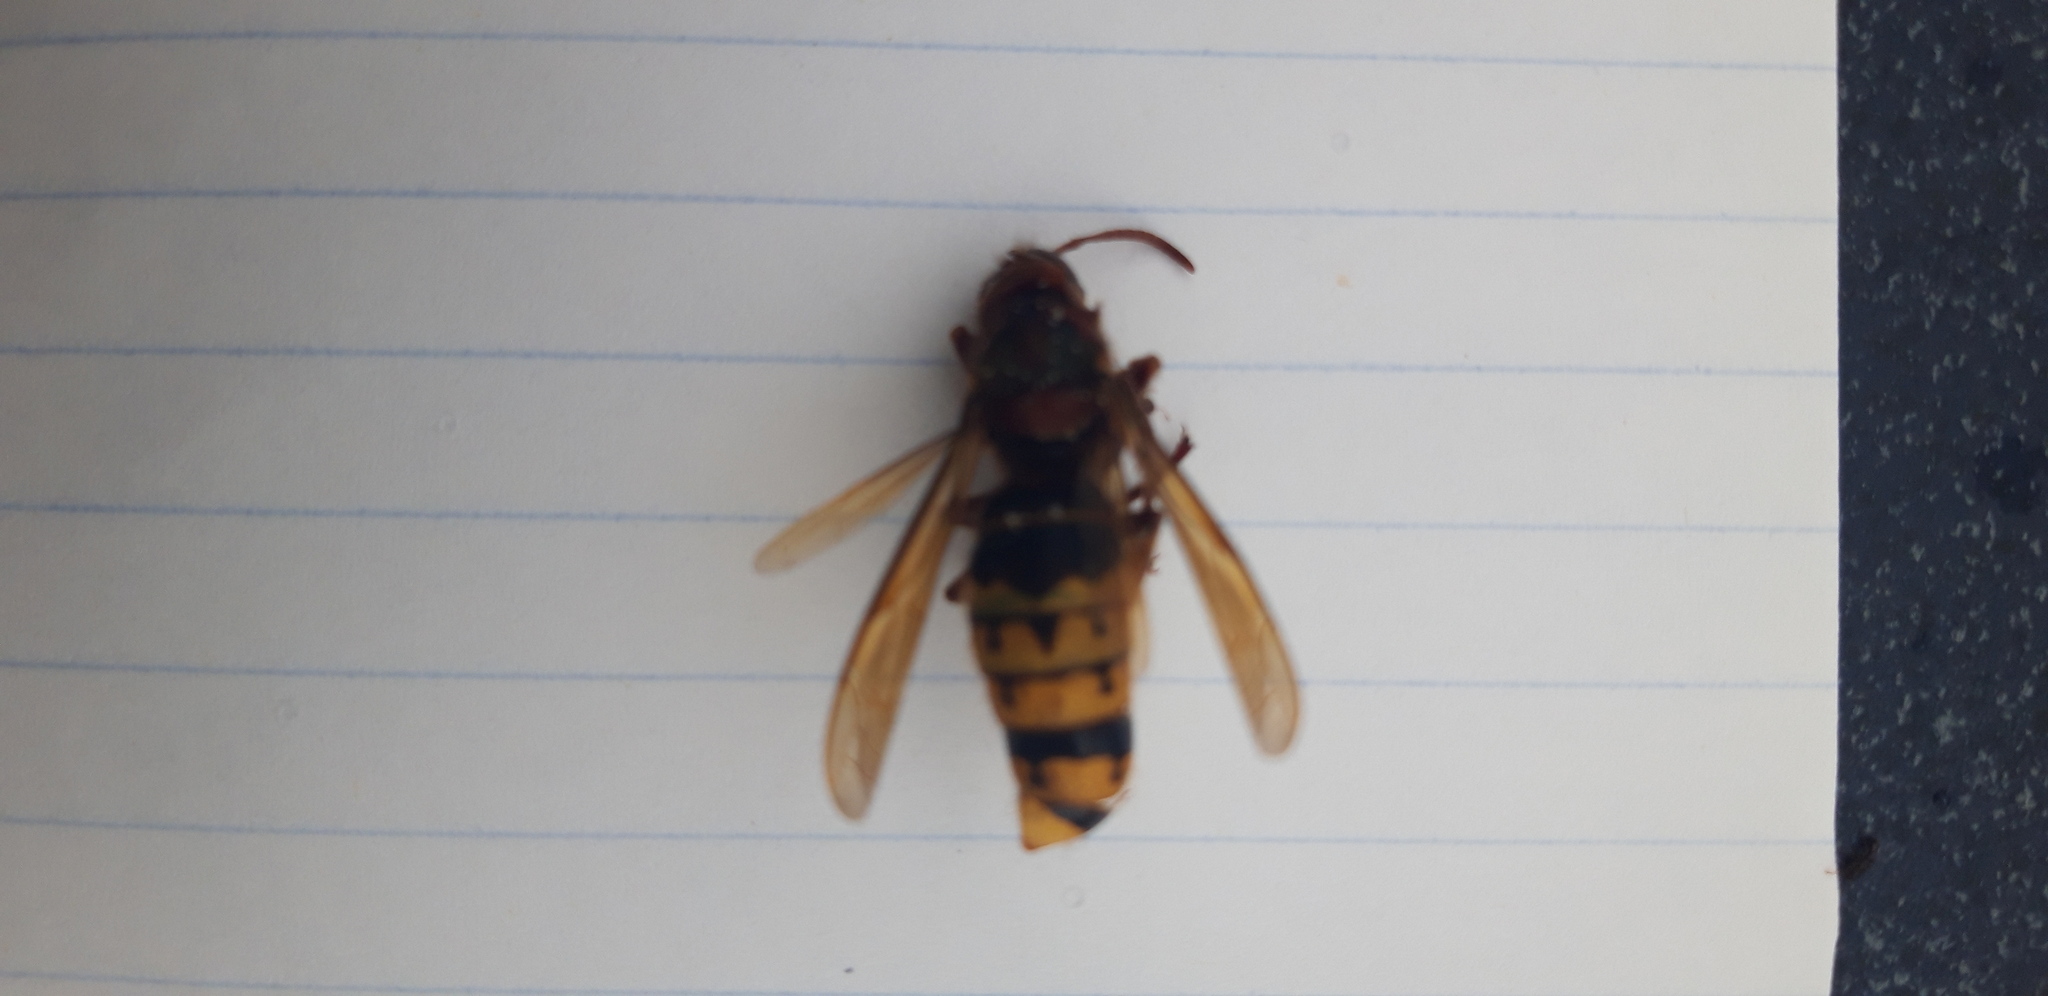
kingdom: Animalia
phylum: Arthropoda
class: Insecta
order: Hymenoptera
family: Vespidae
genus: Vespa
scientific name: Vespa crabro
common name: Hornet
